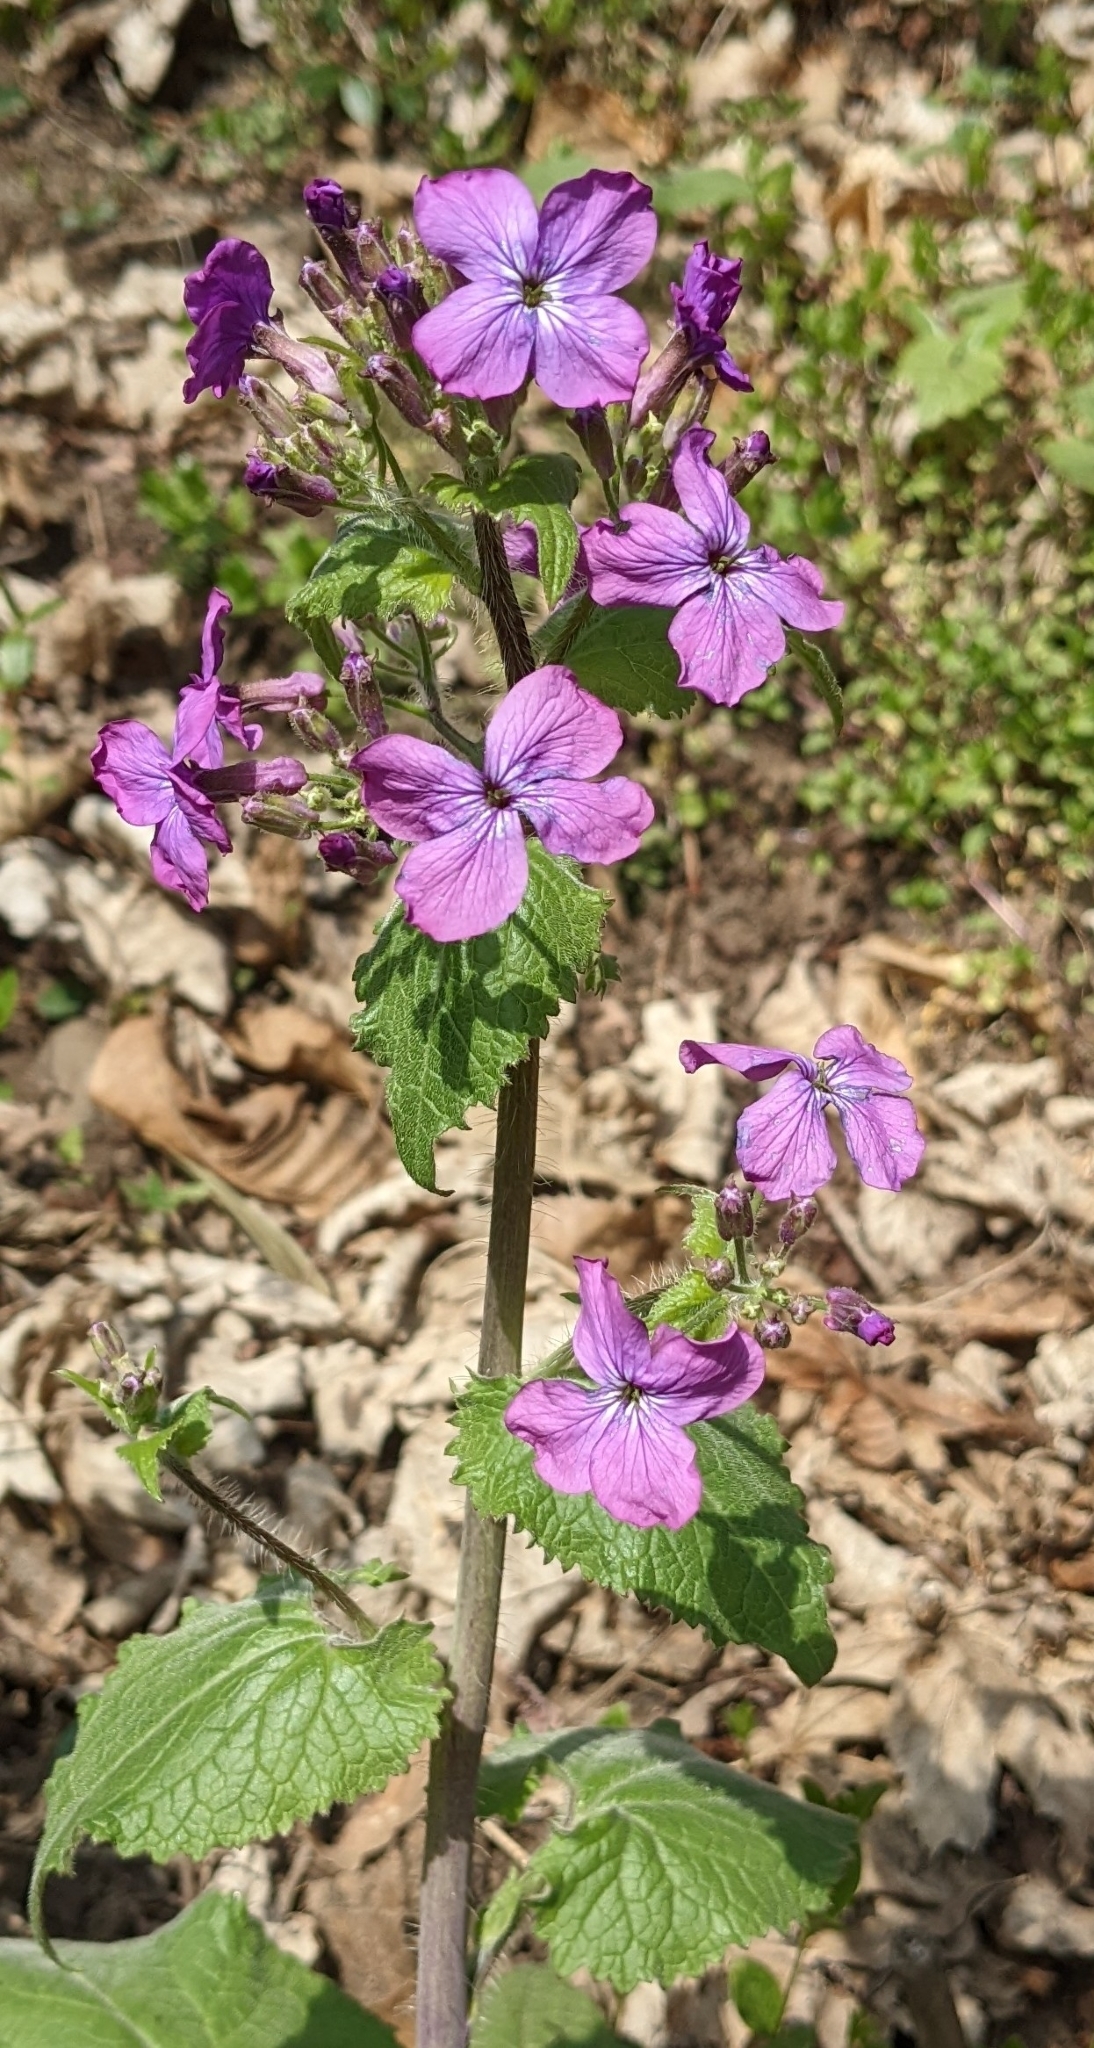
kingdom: Plantae
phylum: Tracheophyta
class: Magnoliopsida
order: Brassicales
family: Brassicaceae
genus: Lunaria
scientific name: Lunaria annua
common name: Honesty
